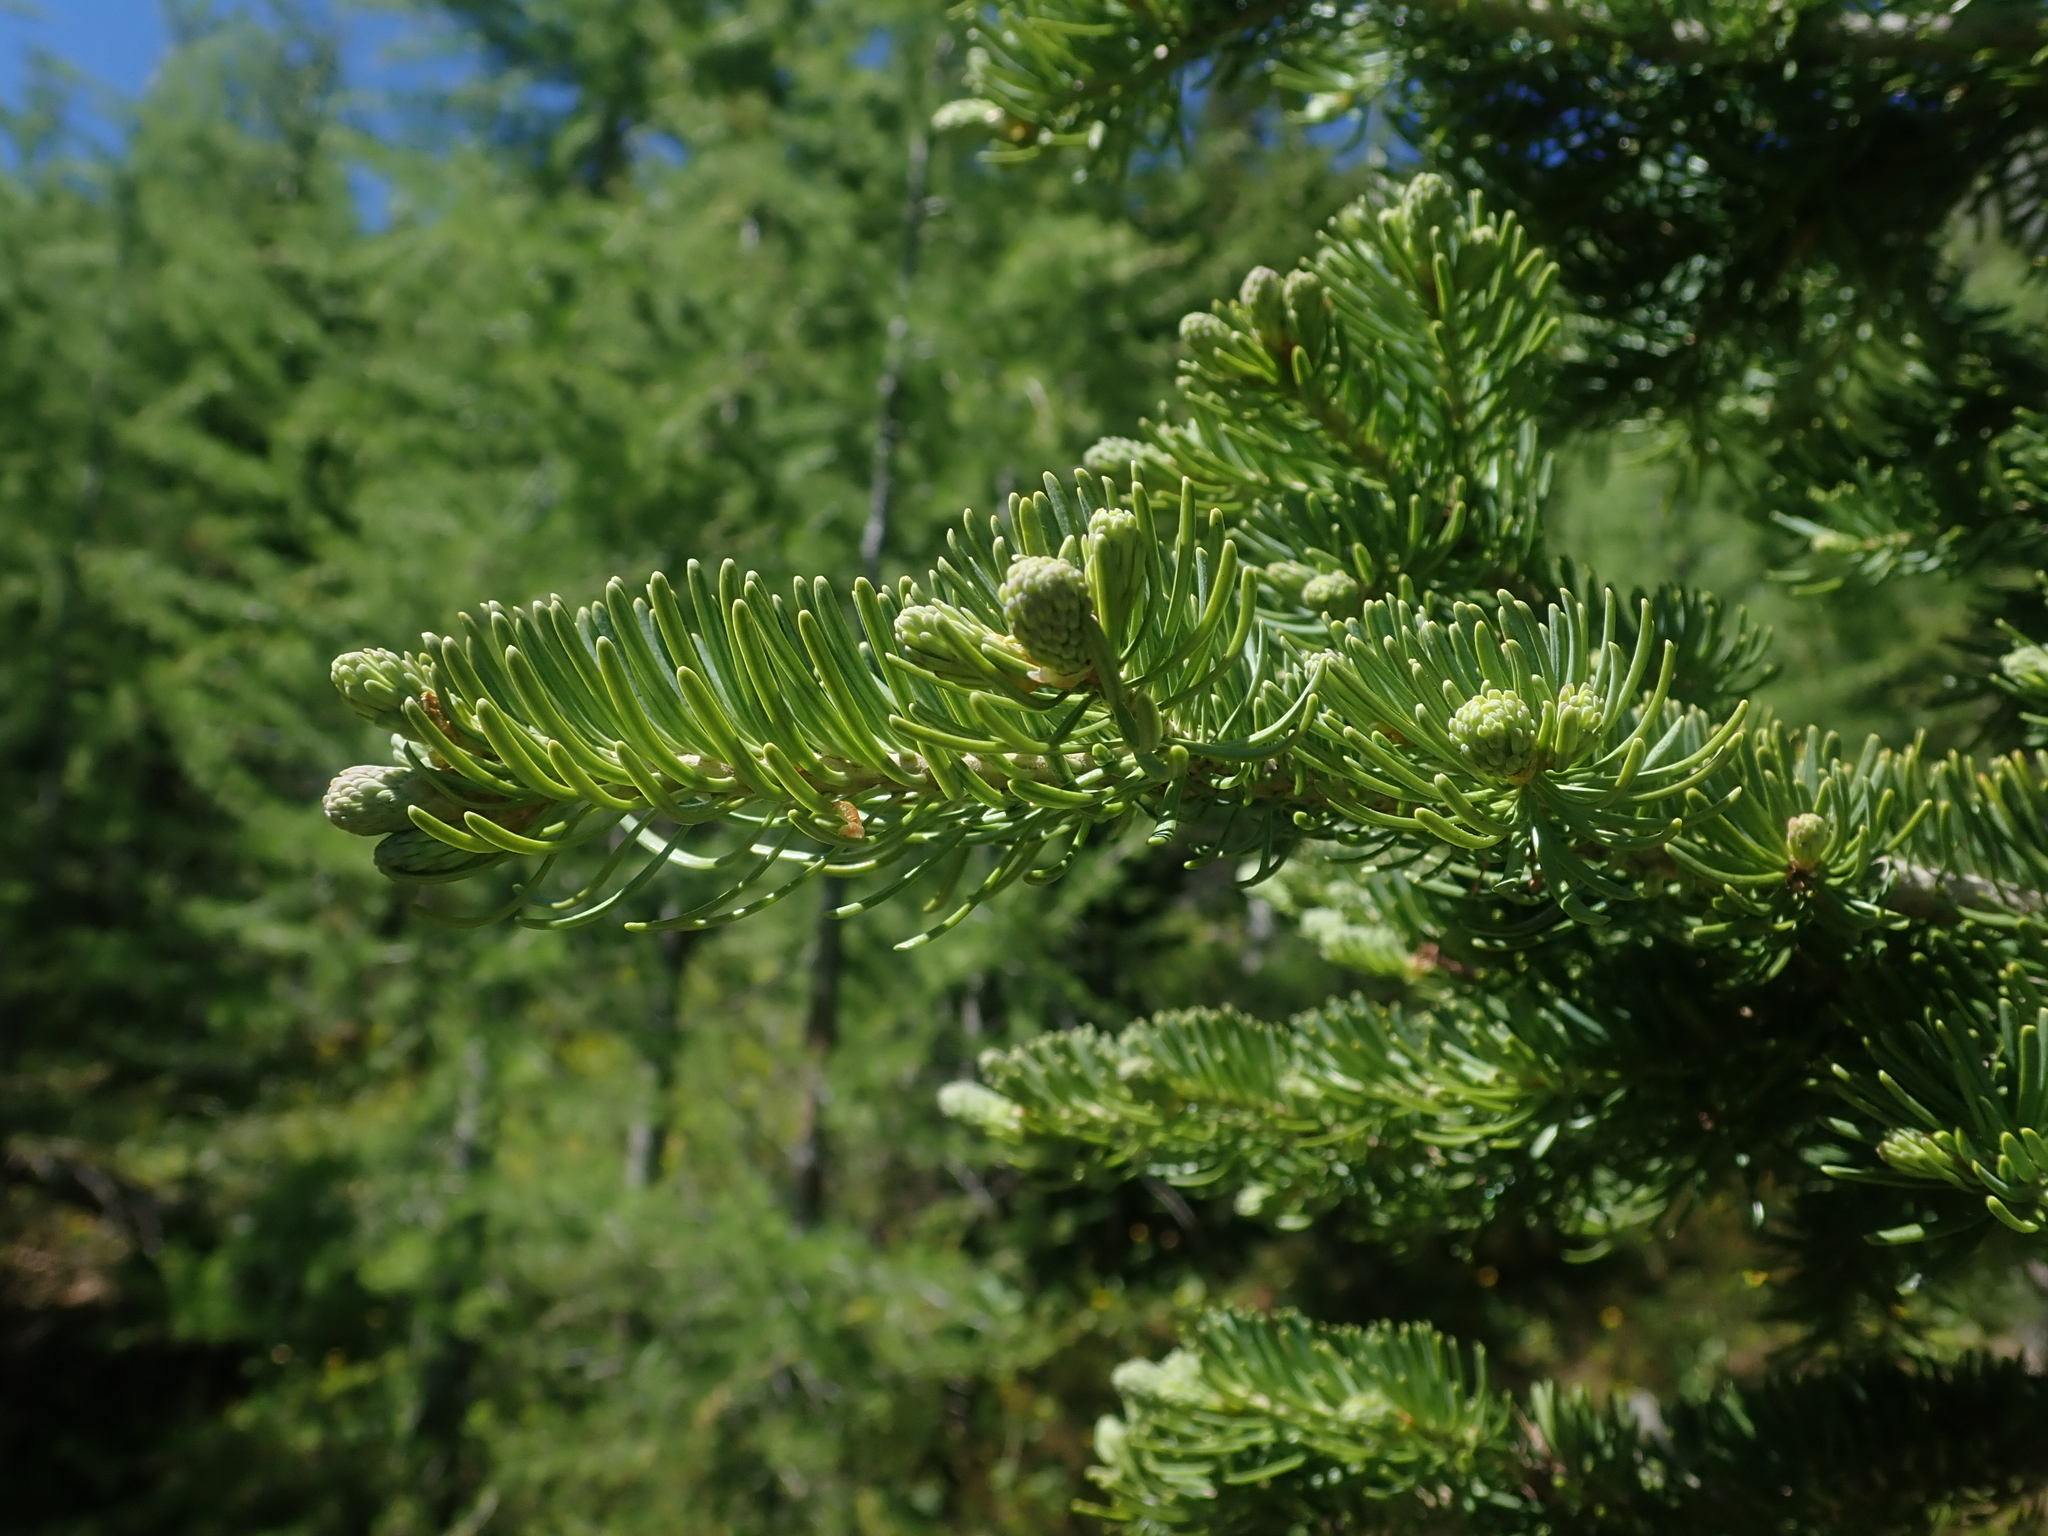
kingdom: Plantae
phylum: Tracheophyta
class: Pinopsida
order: Pinales
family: Pinaceae
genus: Abies
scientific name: Abies lasiocarpa
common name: Subalpine fir
